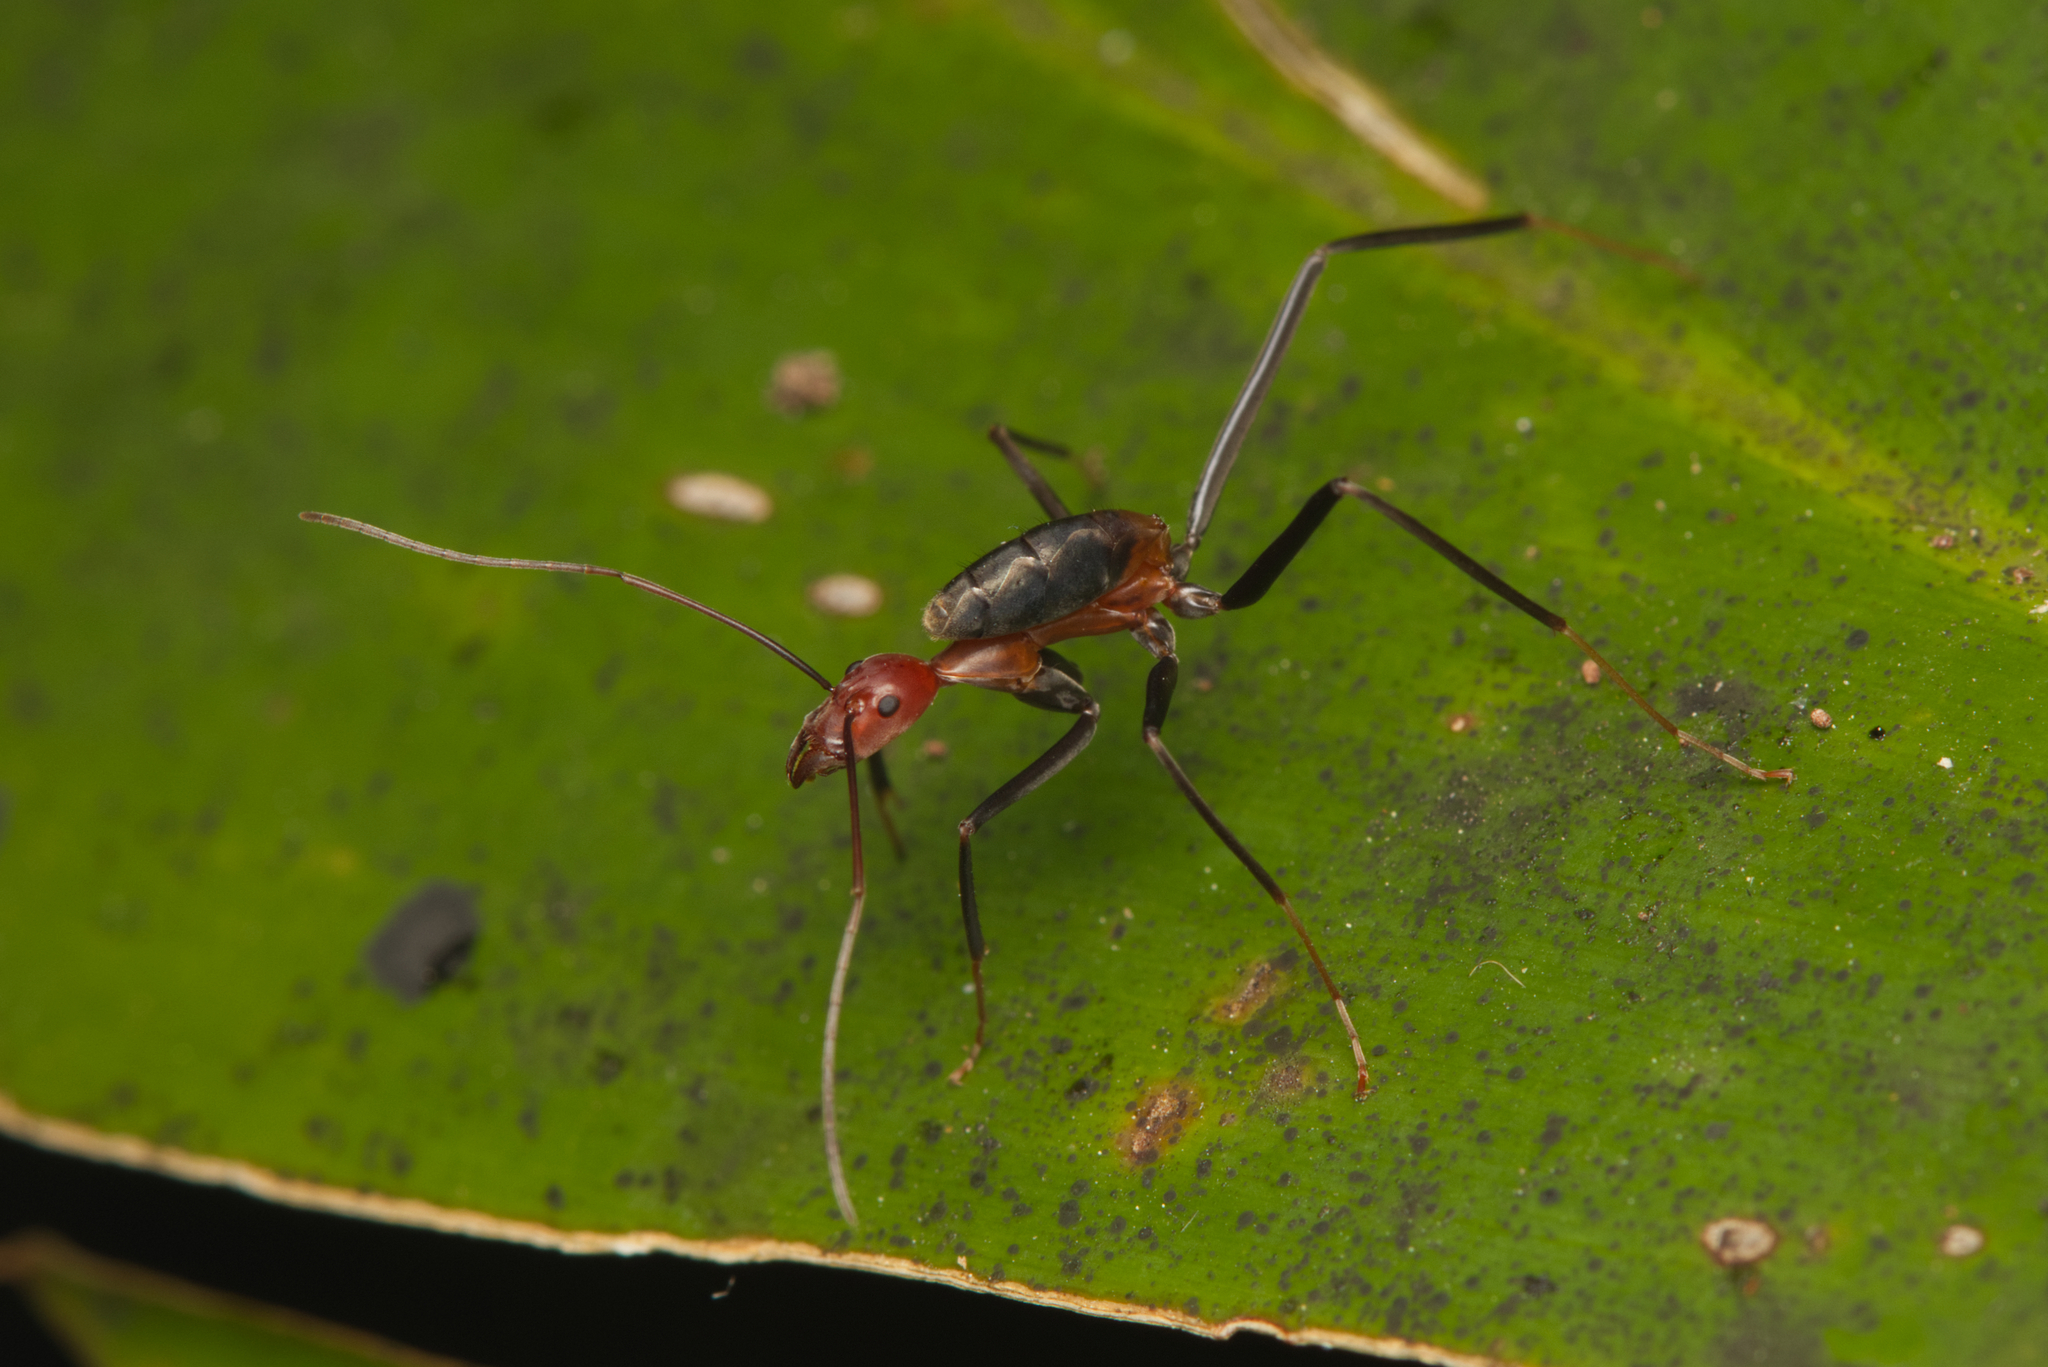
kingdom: Animalia
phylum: Arthropoda
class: Insecta
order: Hymenoptera
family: Formicidae
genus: Leptomyrmex
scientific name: Leptomyrmex rufithorax
